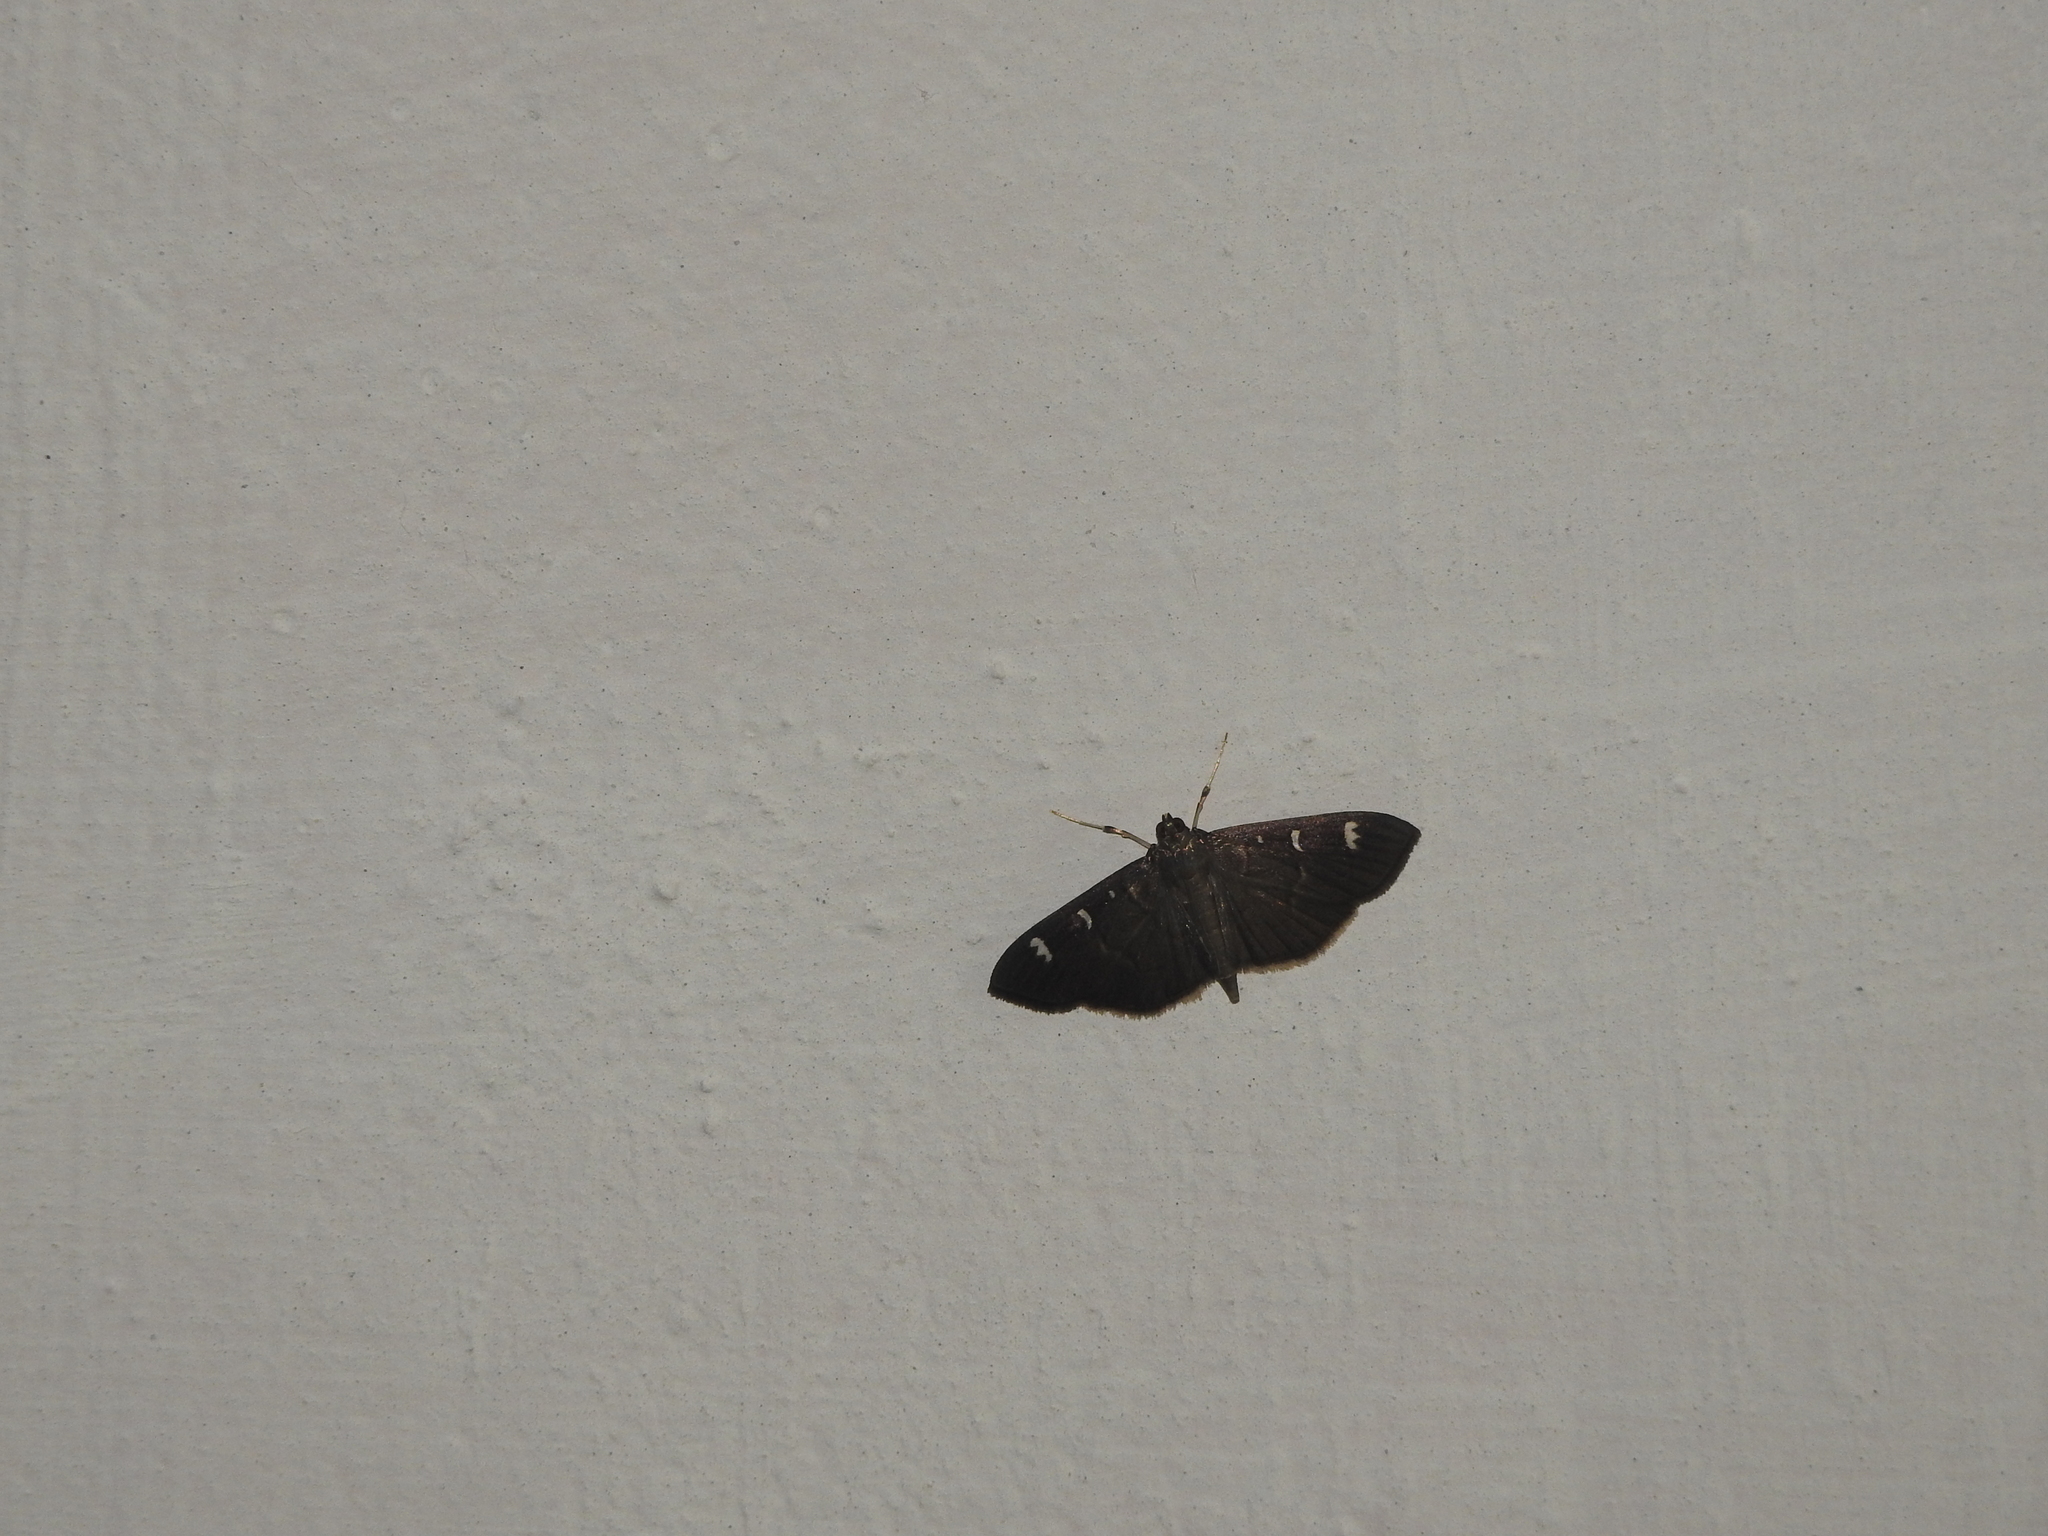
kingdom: Animalia
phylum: Arthropoda
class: Insecta
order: Lepidoptera
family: Crambidae
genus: Syllepte
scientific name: Syllepte adductalis
